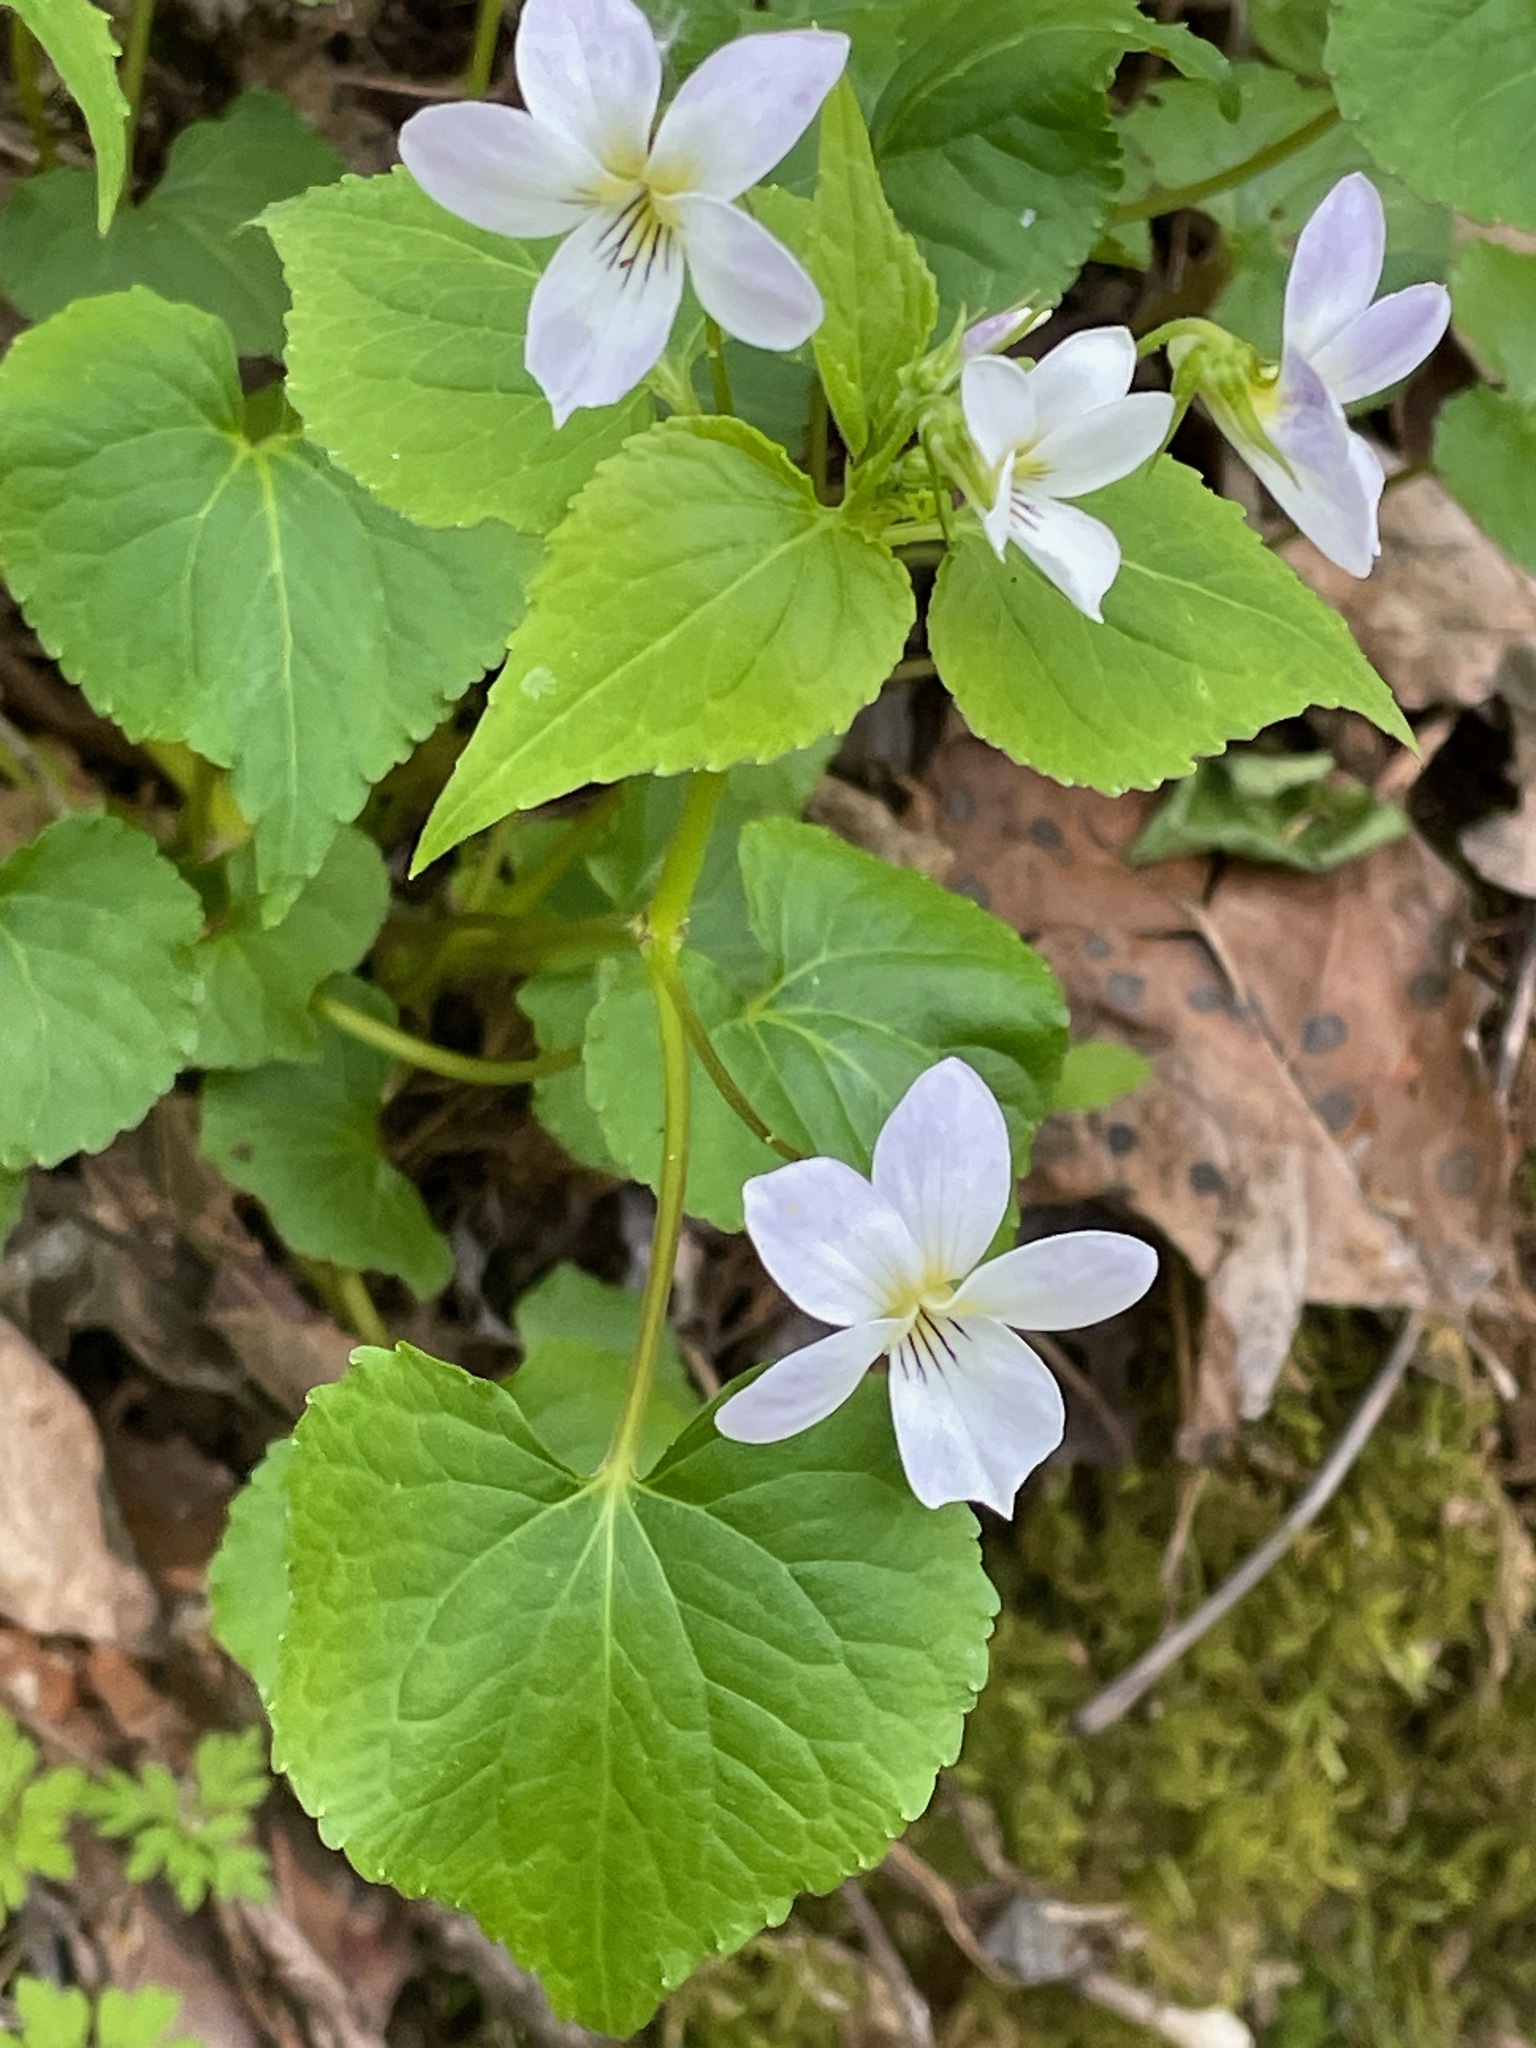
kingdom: Plantae
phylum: Tracheophyta
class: Magnoliopsida
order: Malpighiales
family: Violaceae
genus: Viola
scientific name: Viola canadensis
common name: Canada violet
